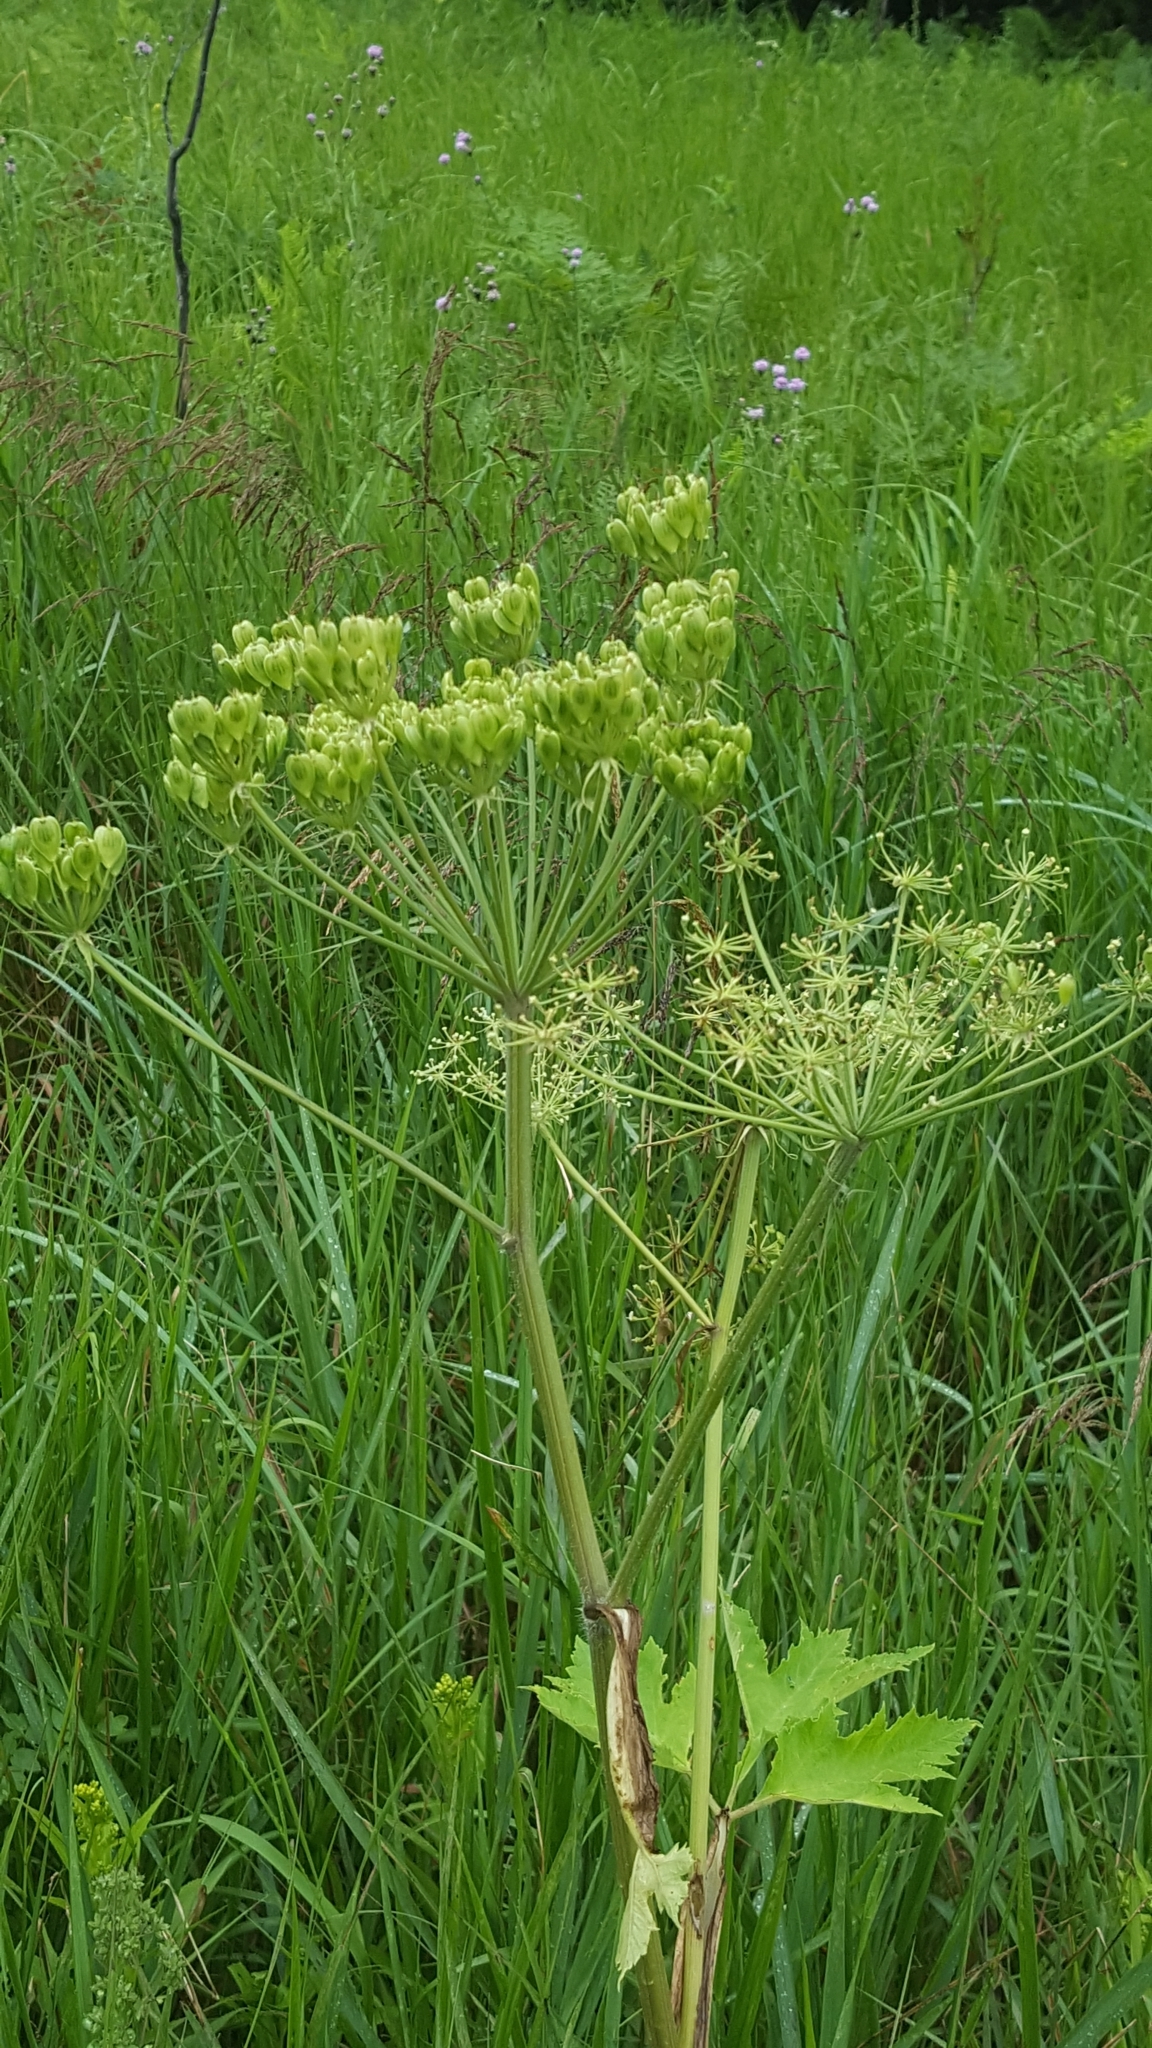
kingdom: Plantae
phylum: Tracheophyta
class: Magnoliopsida
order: Apiales
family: Apiaceae
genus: Heracleum
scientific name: Heracleum maximum
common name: American cow parsnip
